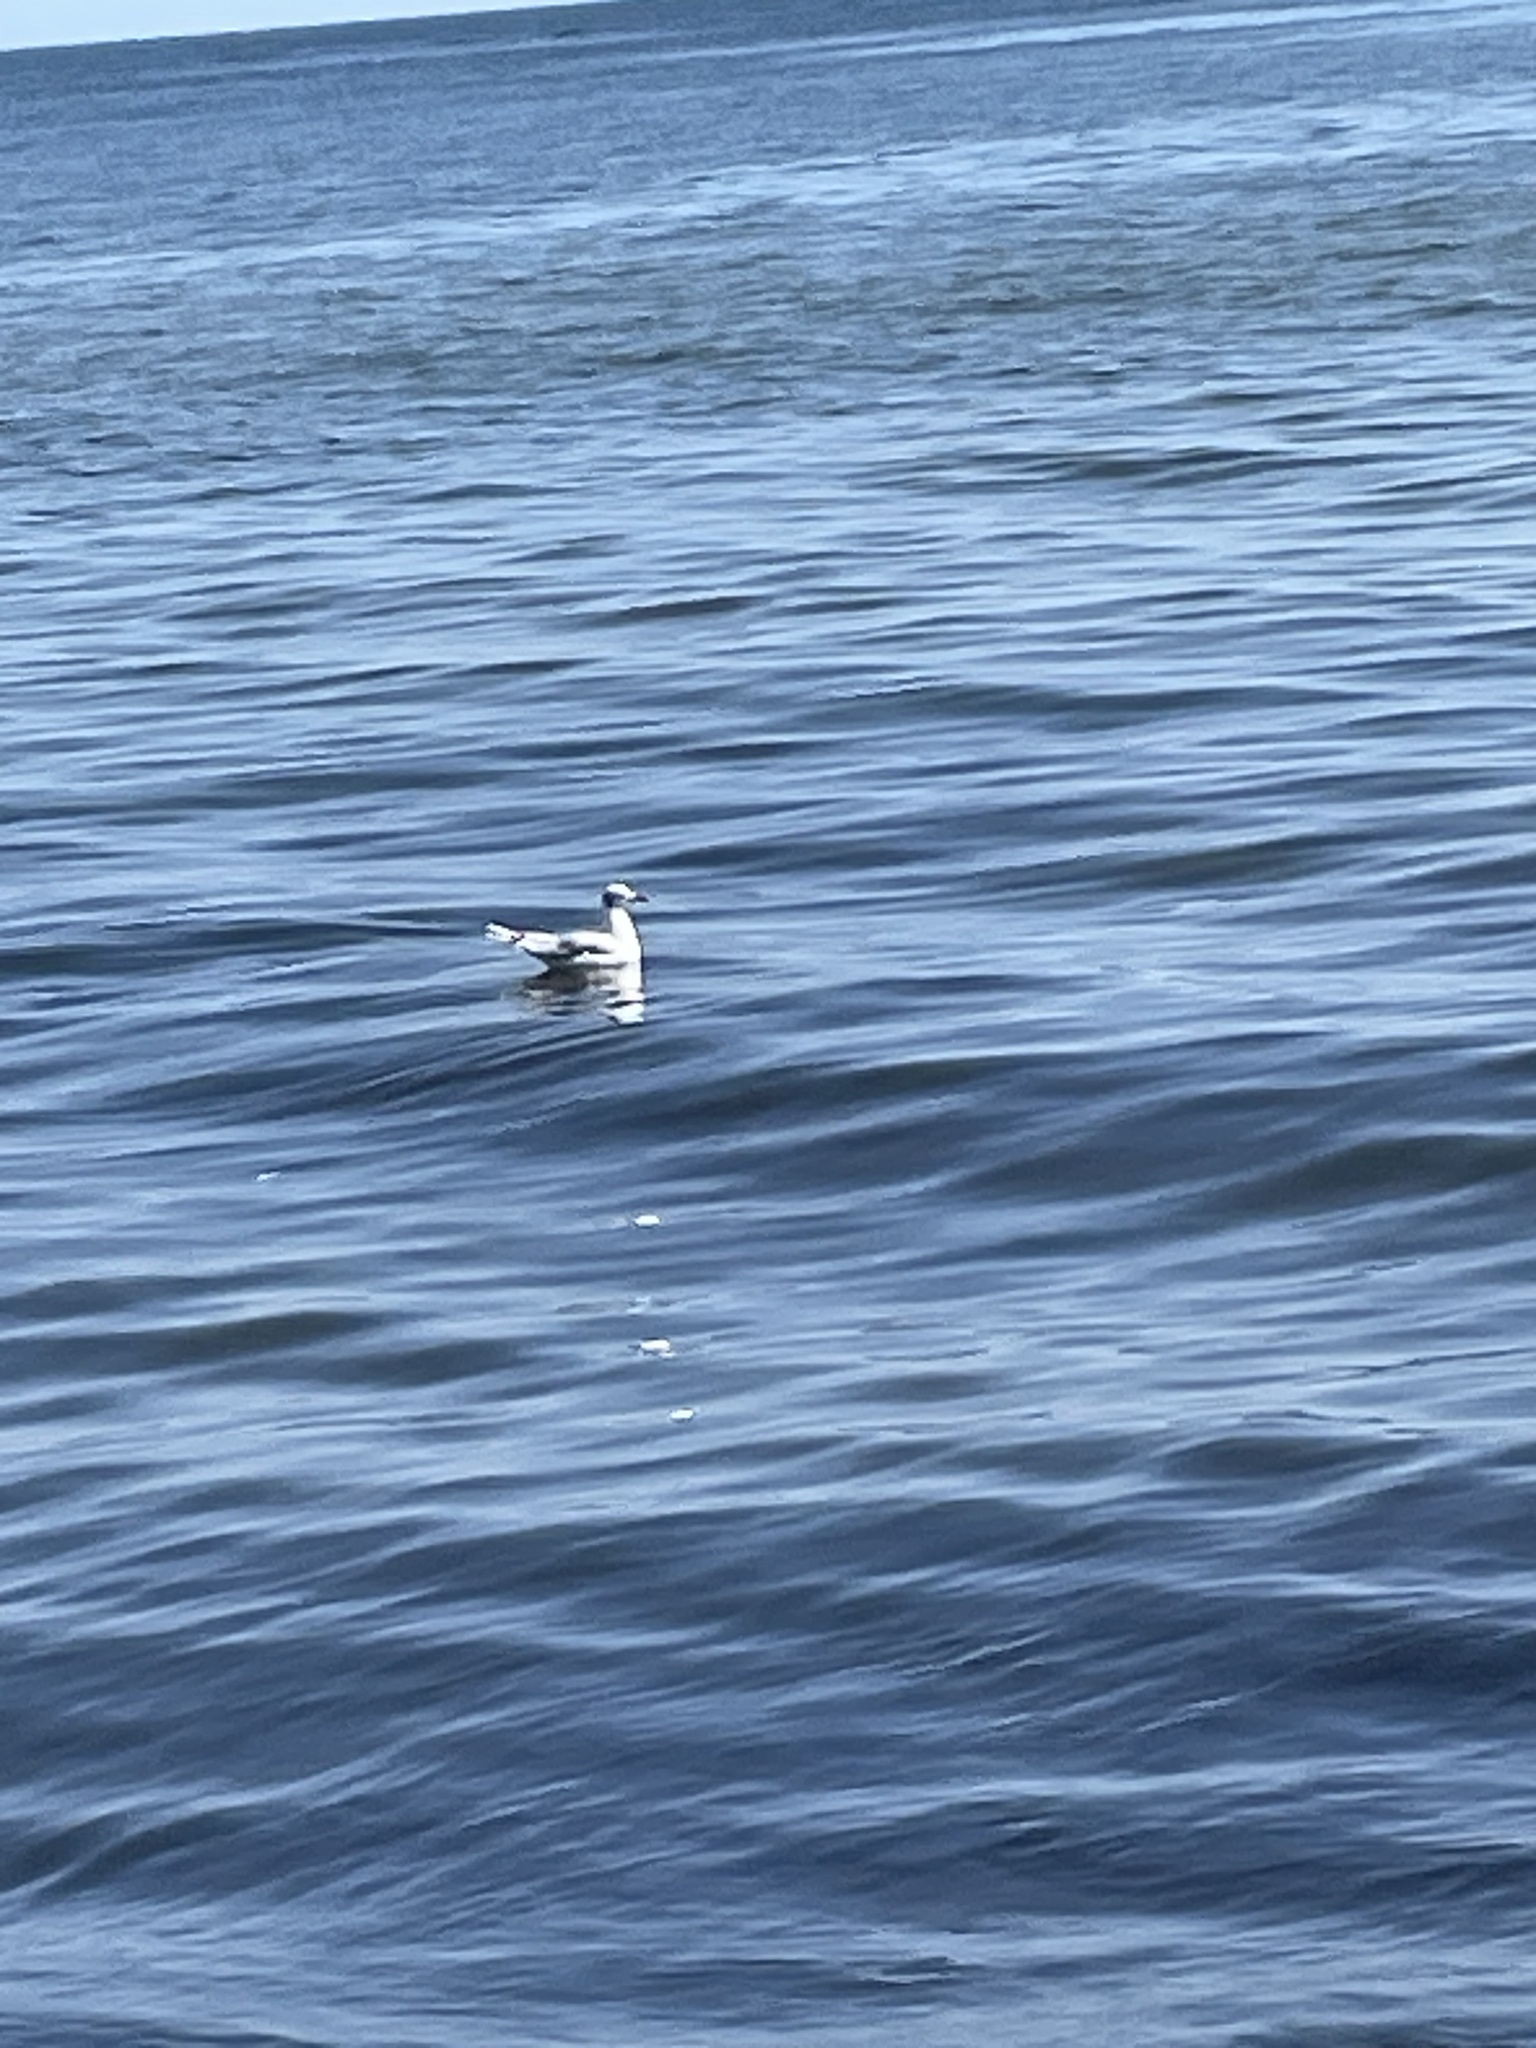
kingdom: Animalia
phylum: Chordata
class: Aves
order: Charadriiformes
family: Laridae
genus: Chroicocephalus
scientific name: Chroicocephalus ridibundus
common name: Black-headed gull
